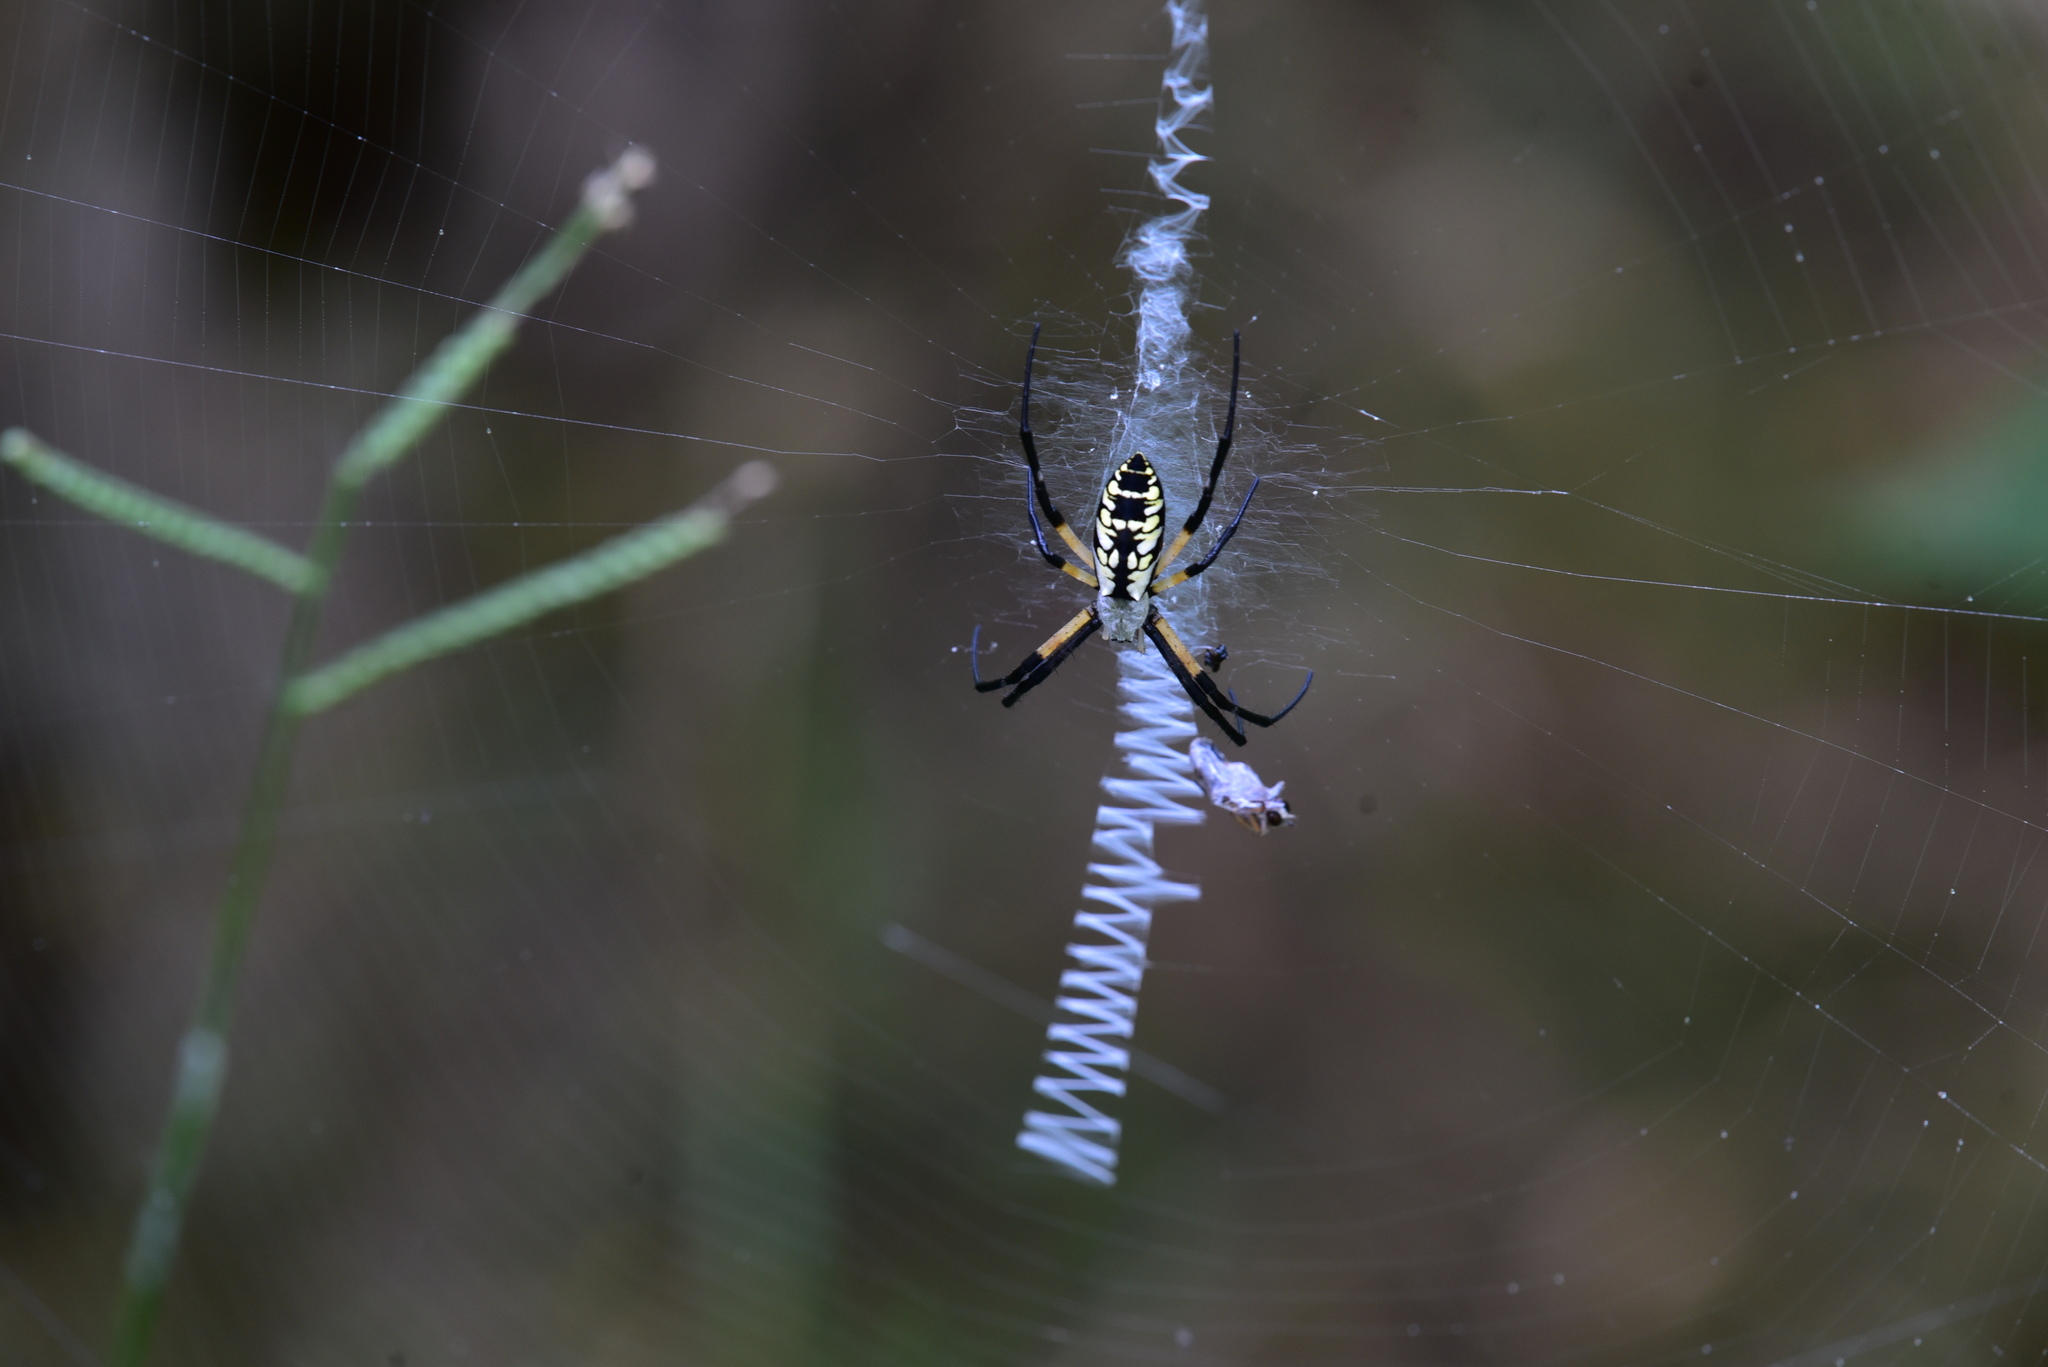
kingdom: Animalia
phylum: Arthropoda
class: Arachnida
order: Araneae
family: Araneidae
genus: Argiope
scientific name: Argiope aurantia
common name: Orb weavers
